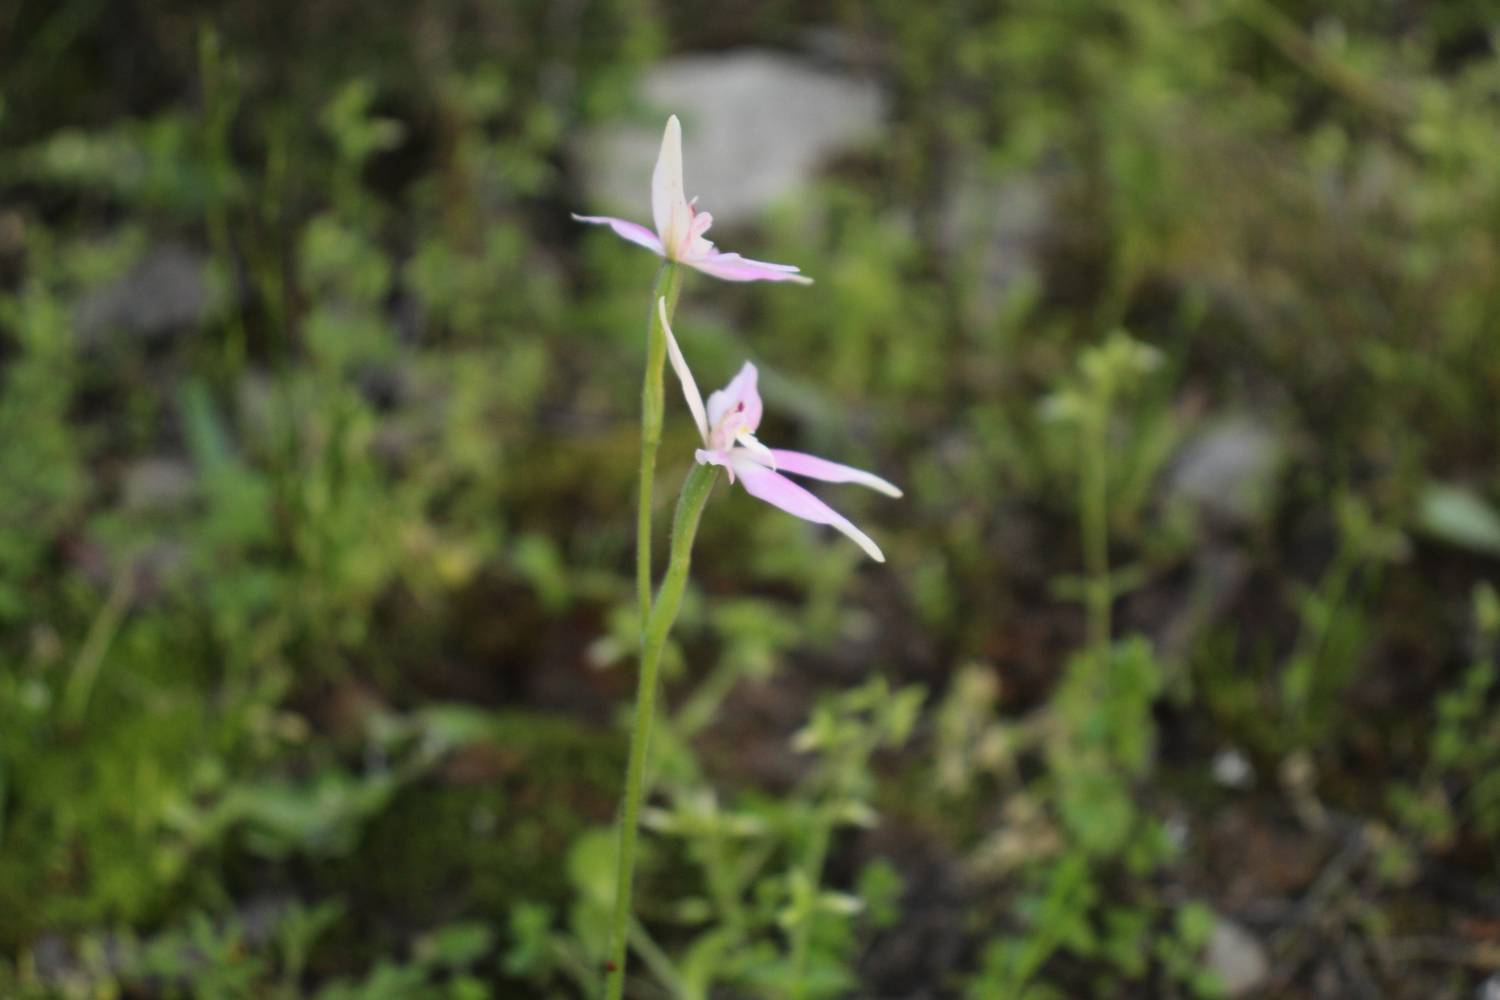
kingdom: Plantae
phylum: Tracheophyta
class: Liliopsida
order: Asparagales
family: Orchidaceae
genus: Caladenia
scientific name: Caladenia latifolia
